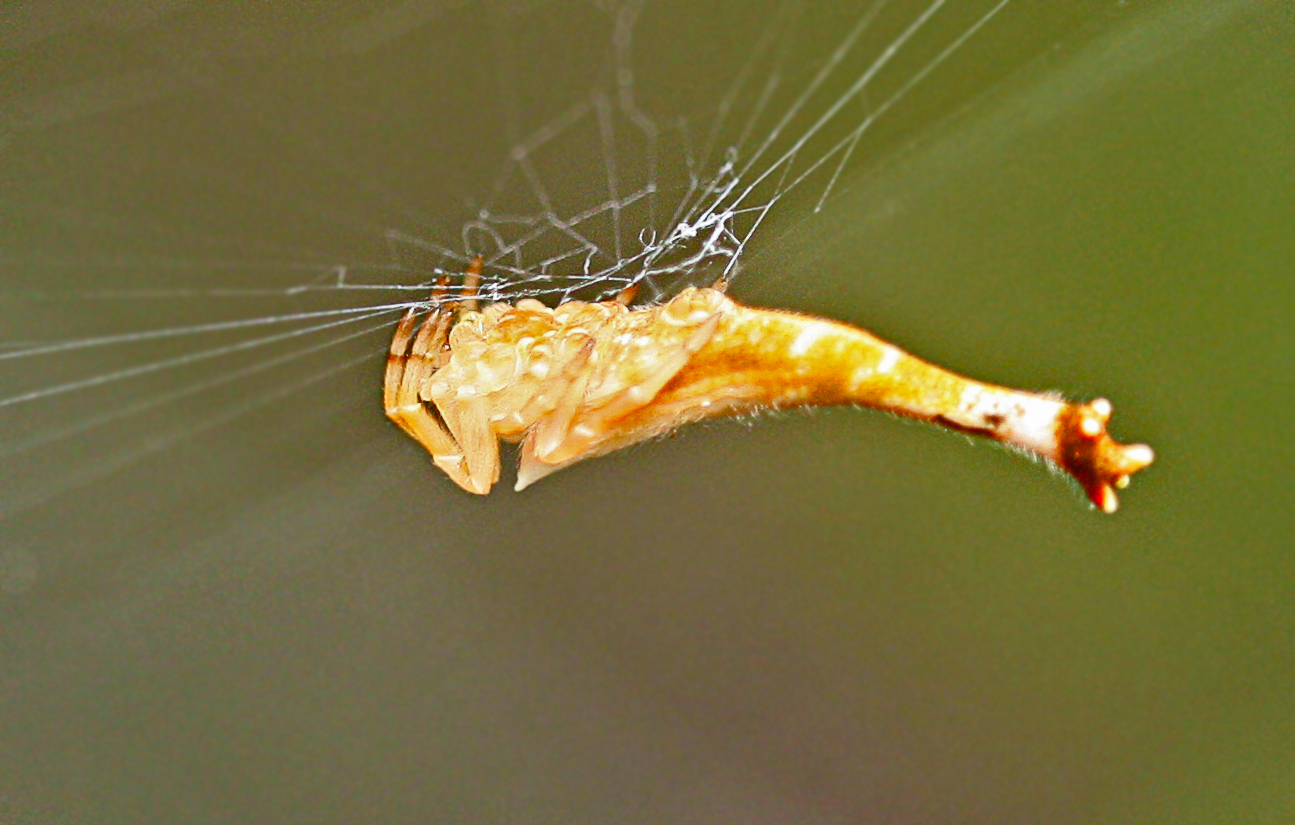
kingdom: Animalia
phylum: Arthropoda
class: Arachnida
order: Araneae
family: Araneidae
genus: Arachnura
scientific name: Arachnura higginsi
